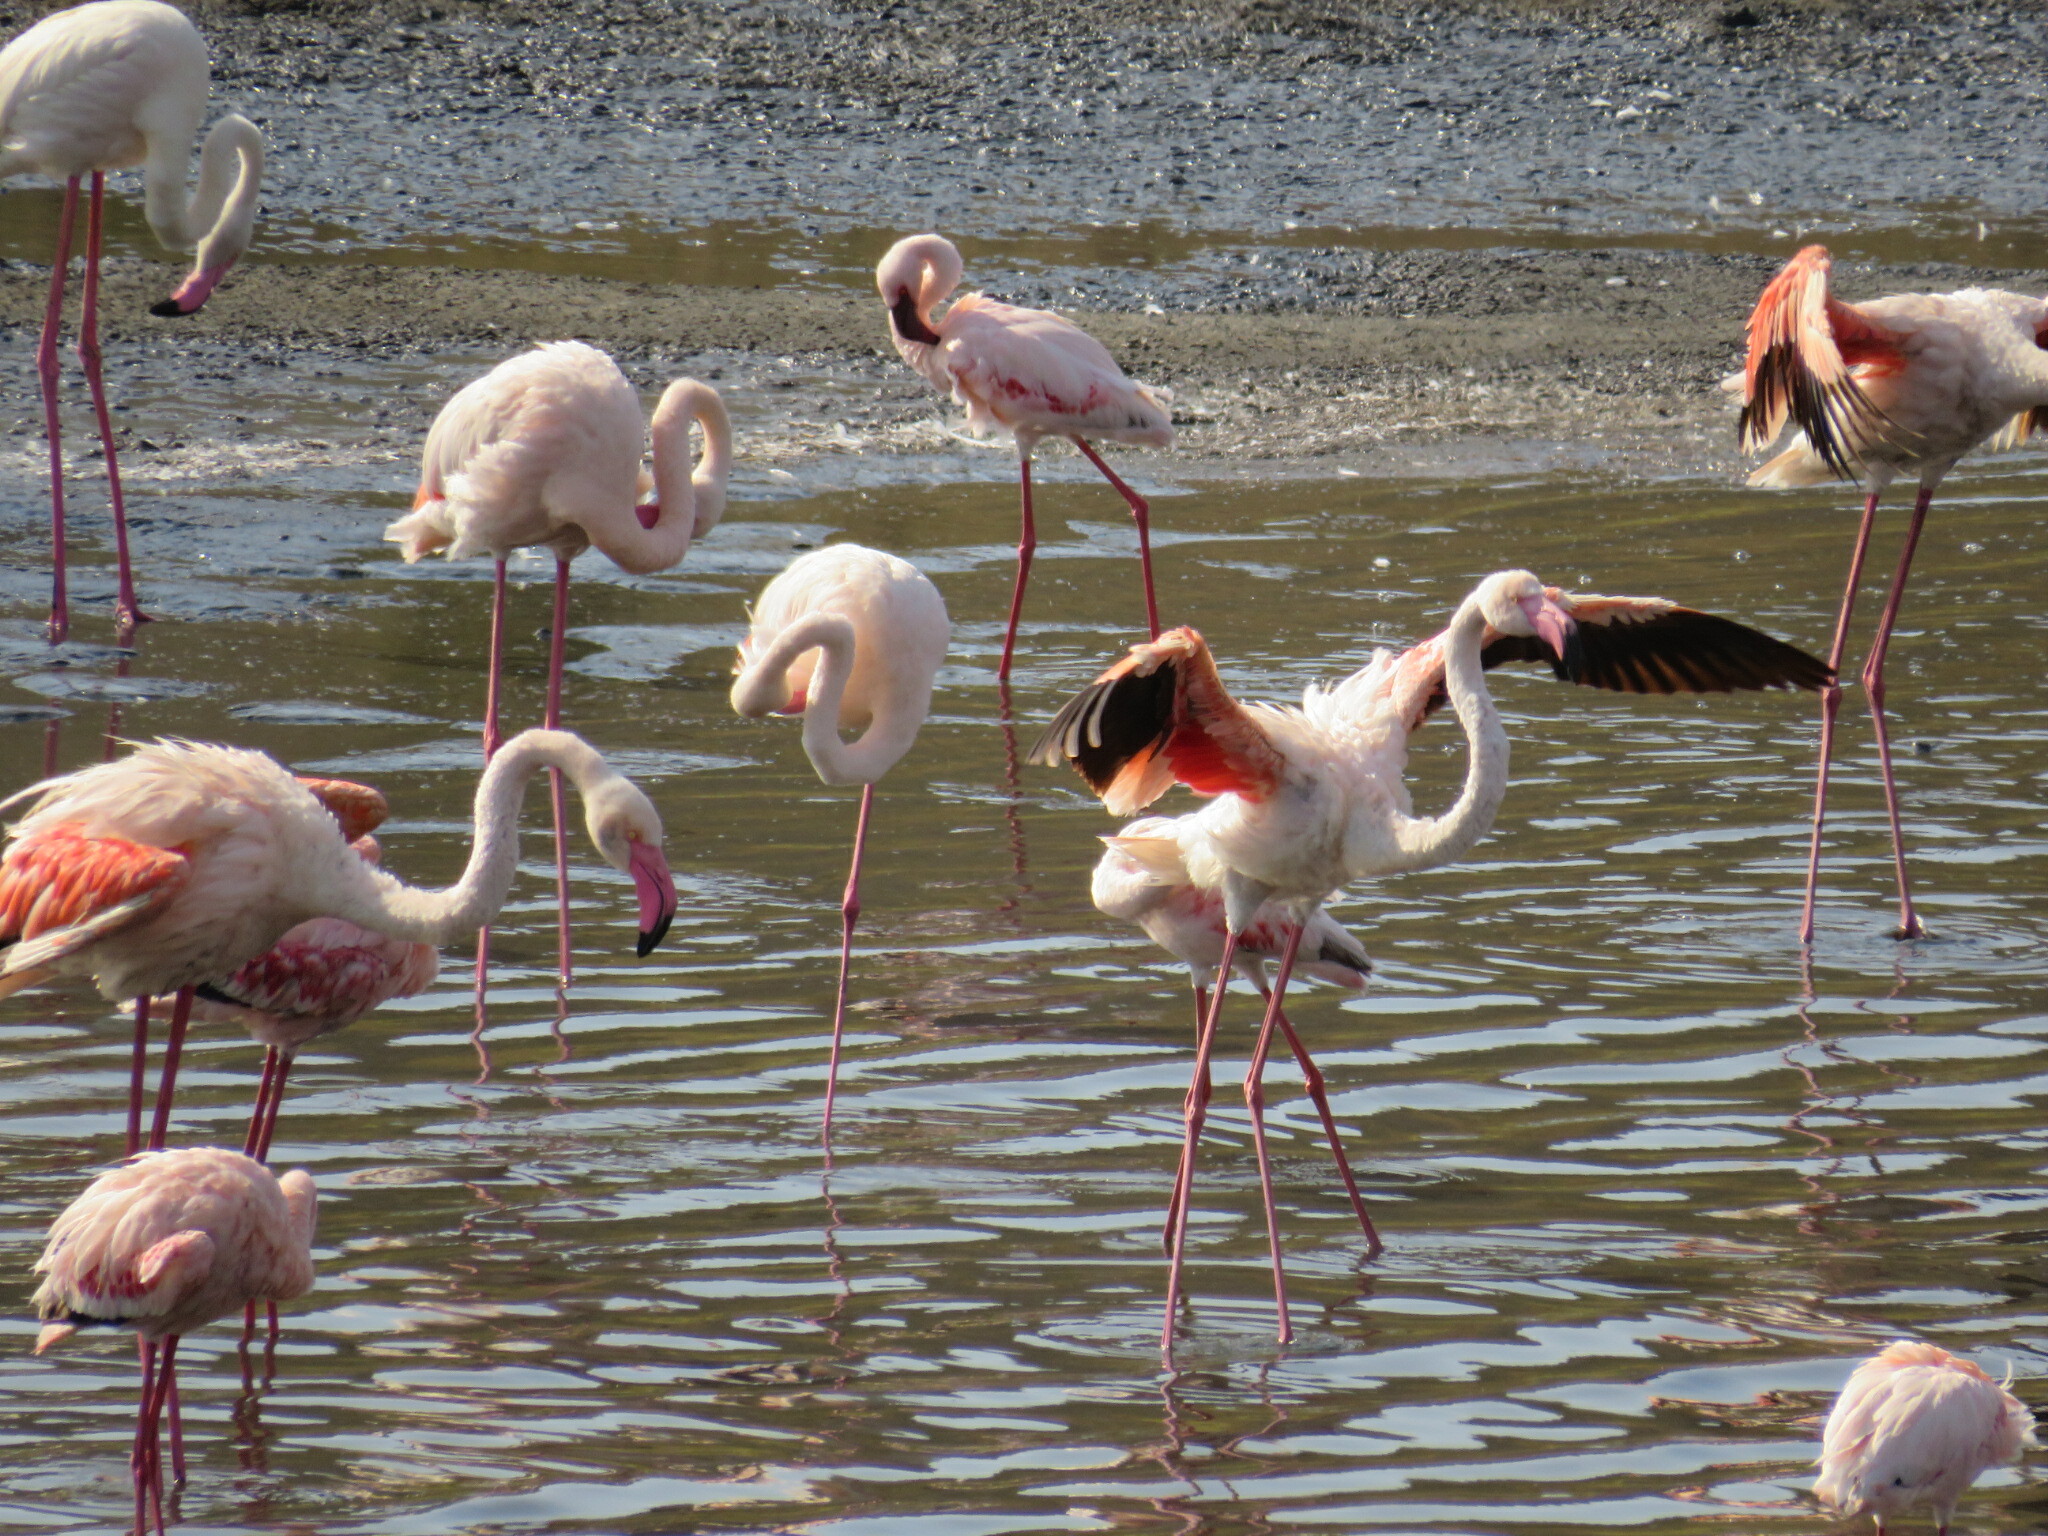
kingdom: Animalia
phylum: Chordata
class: Aves
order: Phoenicopteriformes
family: Phoenicopteridae
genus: Phoeniconaias
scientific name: Phoeniconaias minor
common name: Lesser flamingo
